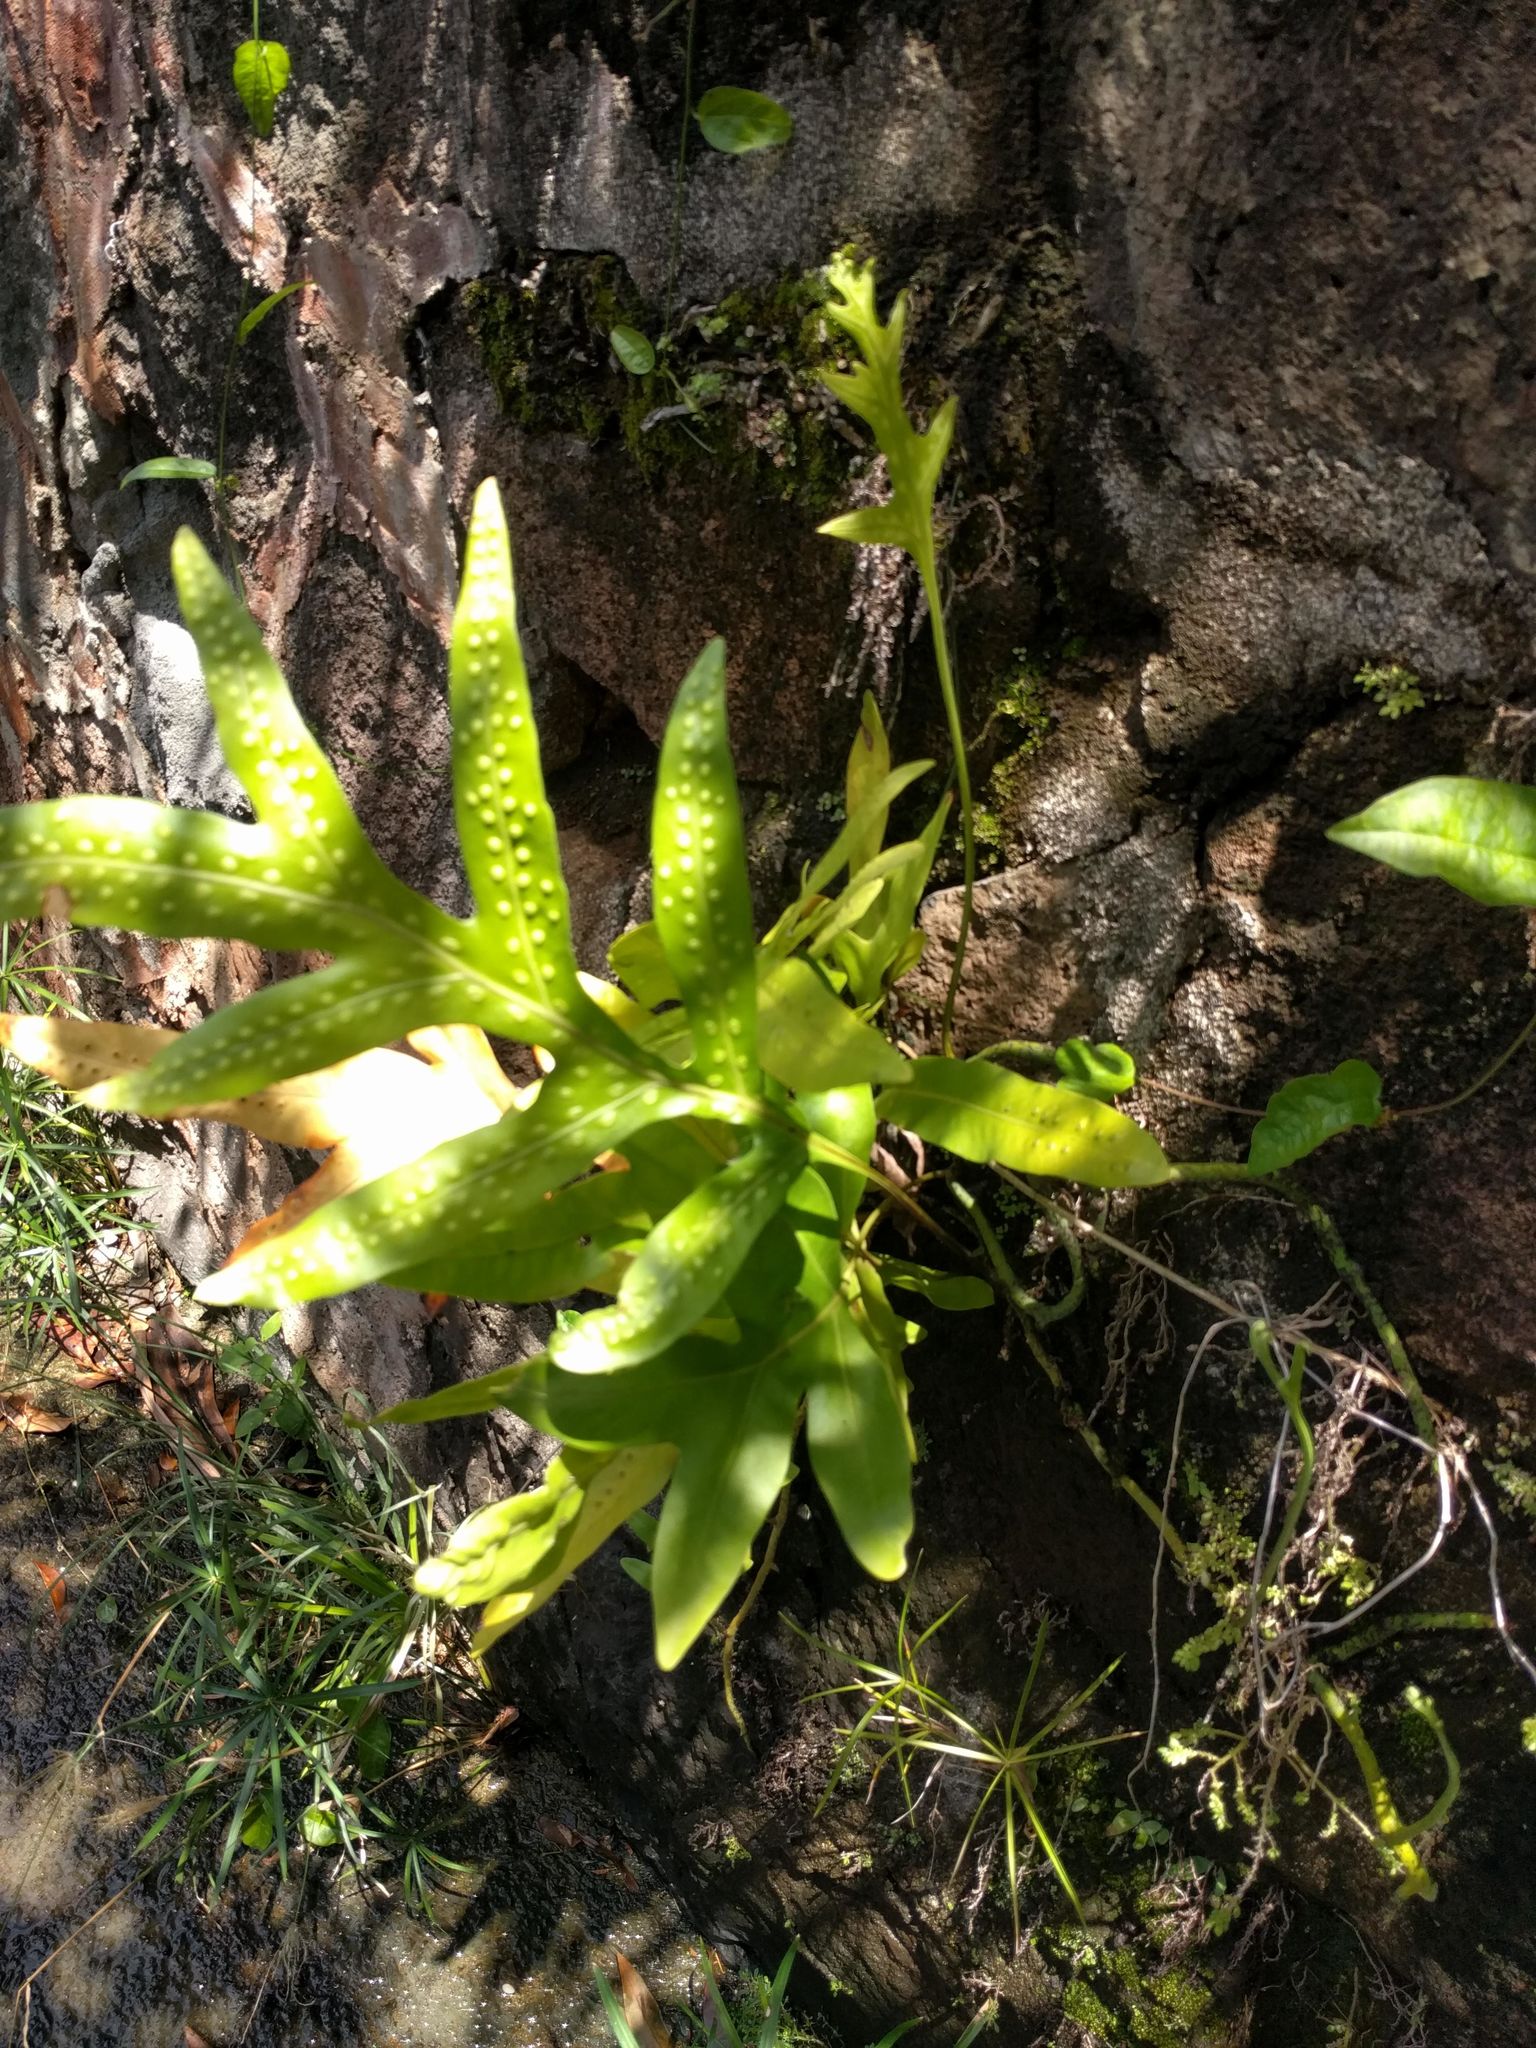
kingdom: Plantae
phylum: Tracheophyta
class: Polypodiopsida
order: Polypodiales
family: Polypodiaceae
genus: Microsorum
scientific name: Microsorum grossum
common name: Musk fern
